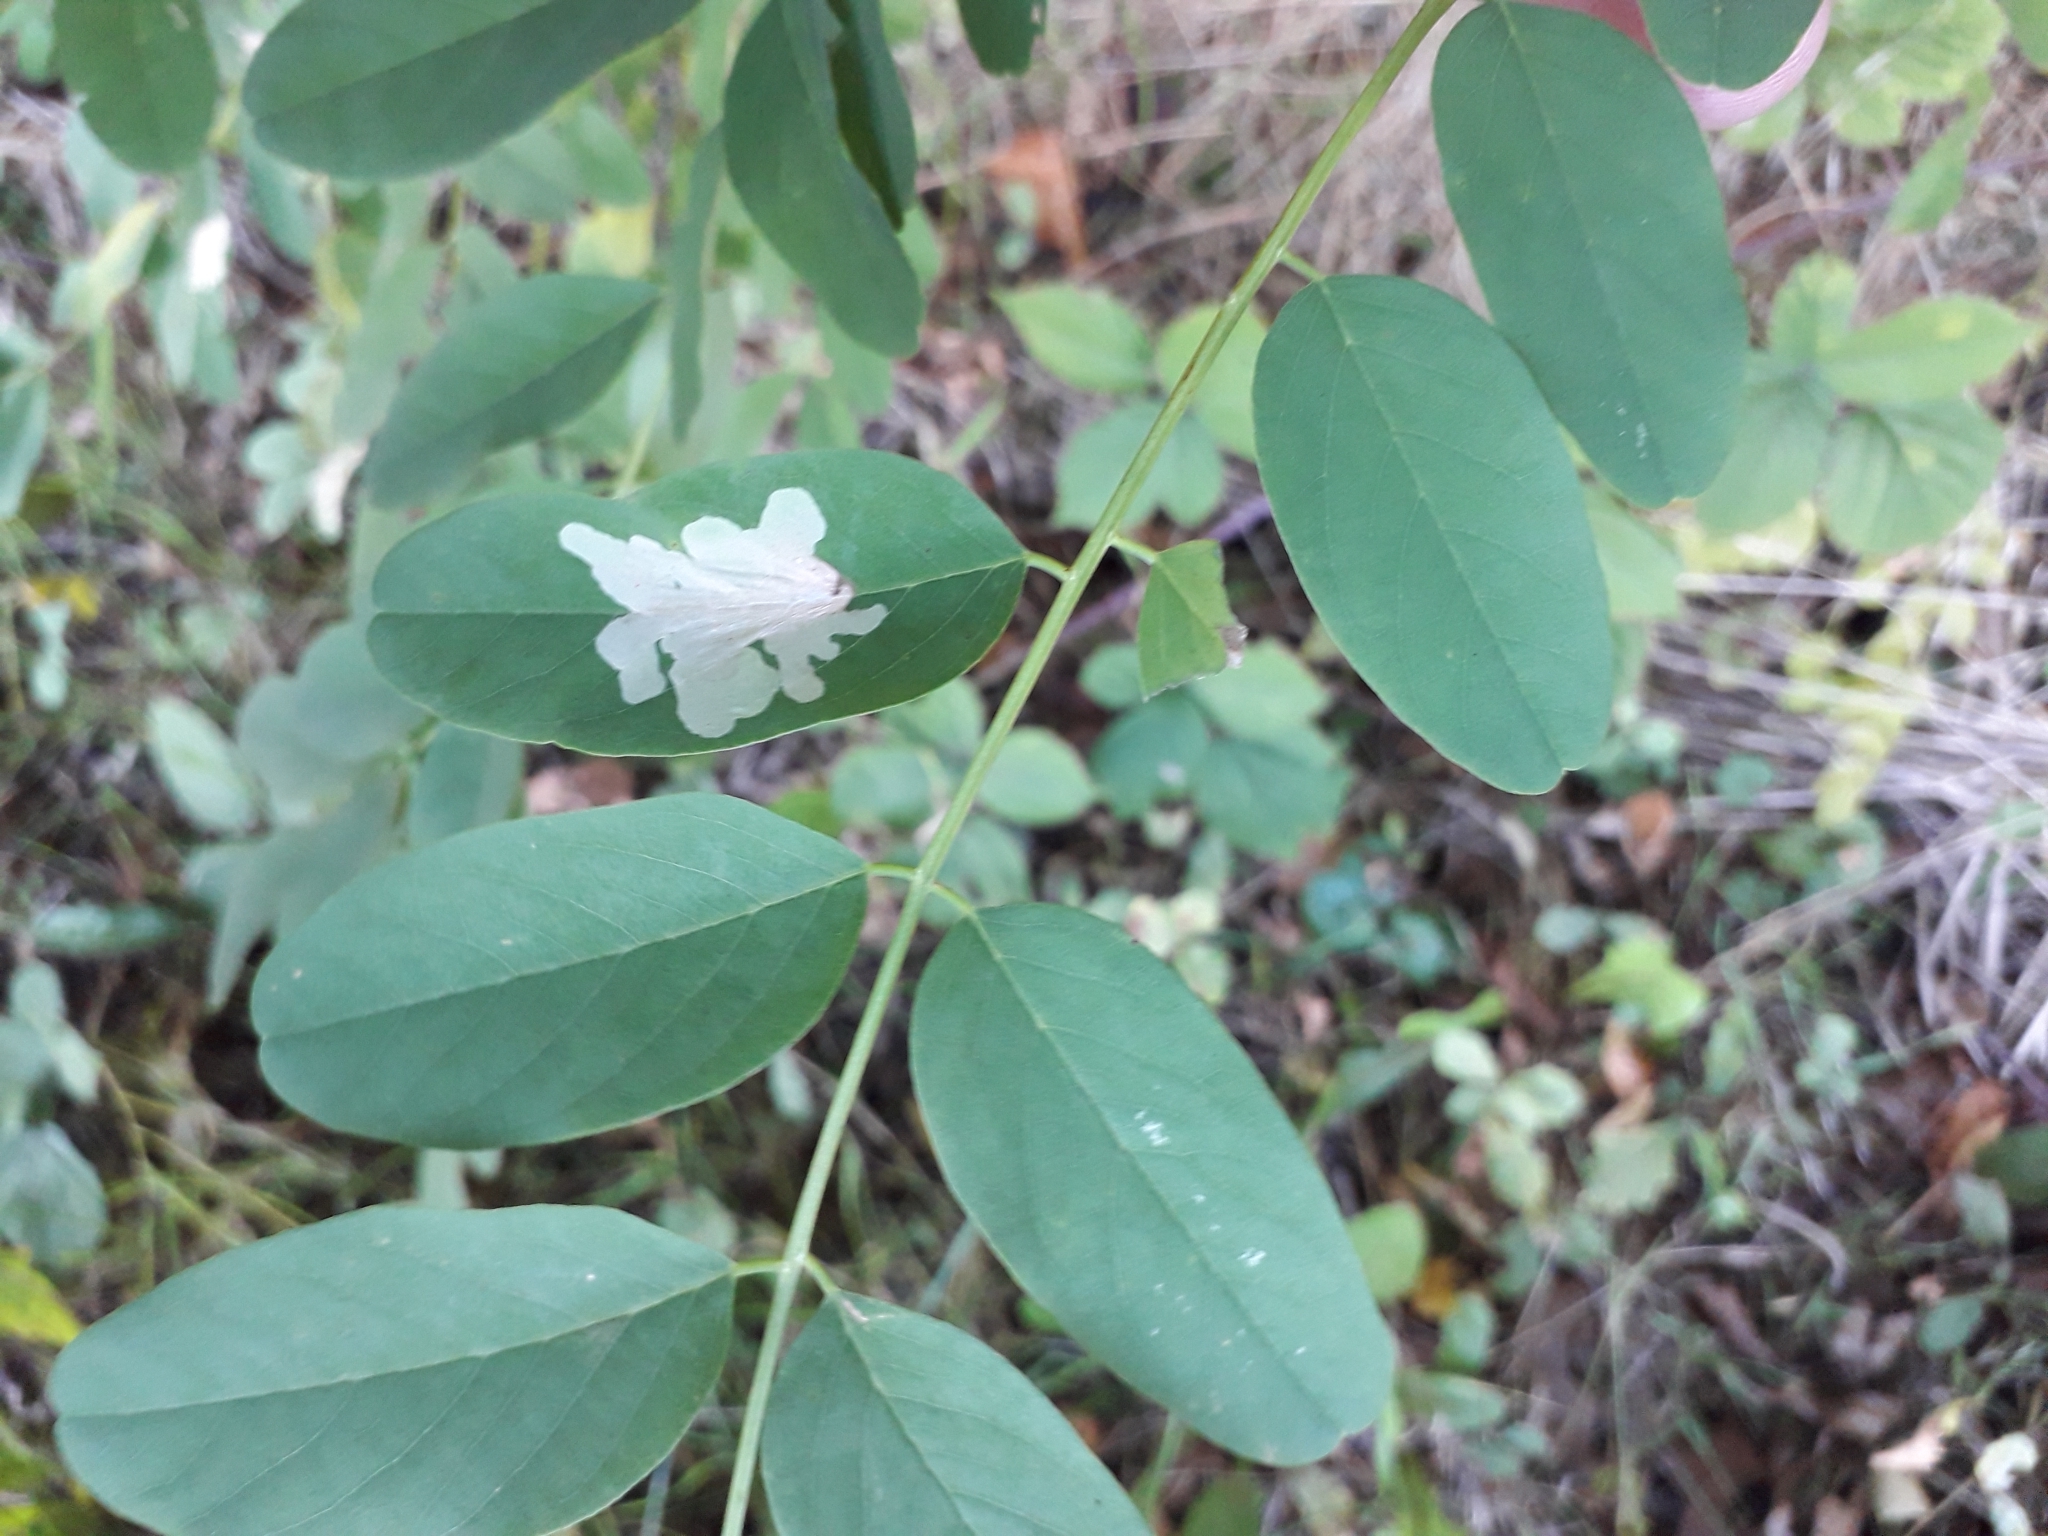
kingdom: Animalia
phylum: Arthropoda
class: Insecta
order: Lepidoptera
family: Gracillariidae
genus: Parectopa
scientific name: Parectopa robiniella
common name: Locust digitate leafminer
